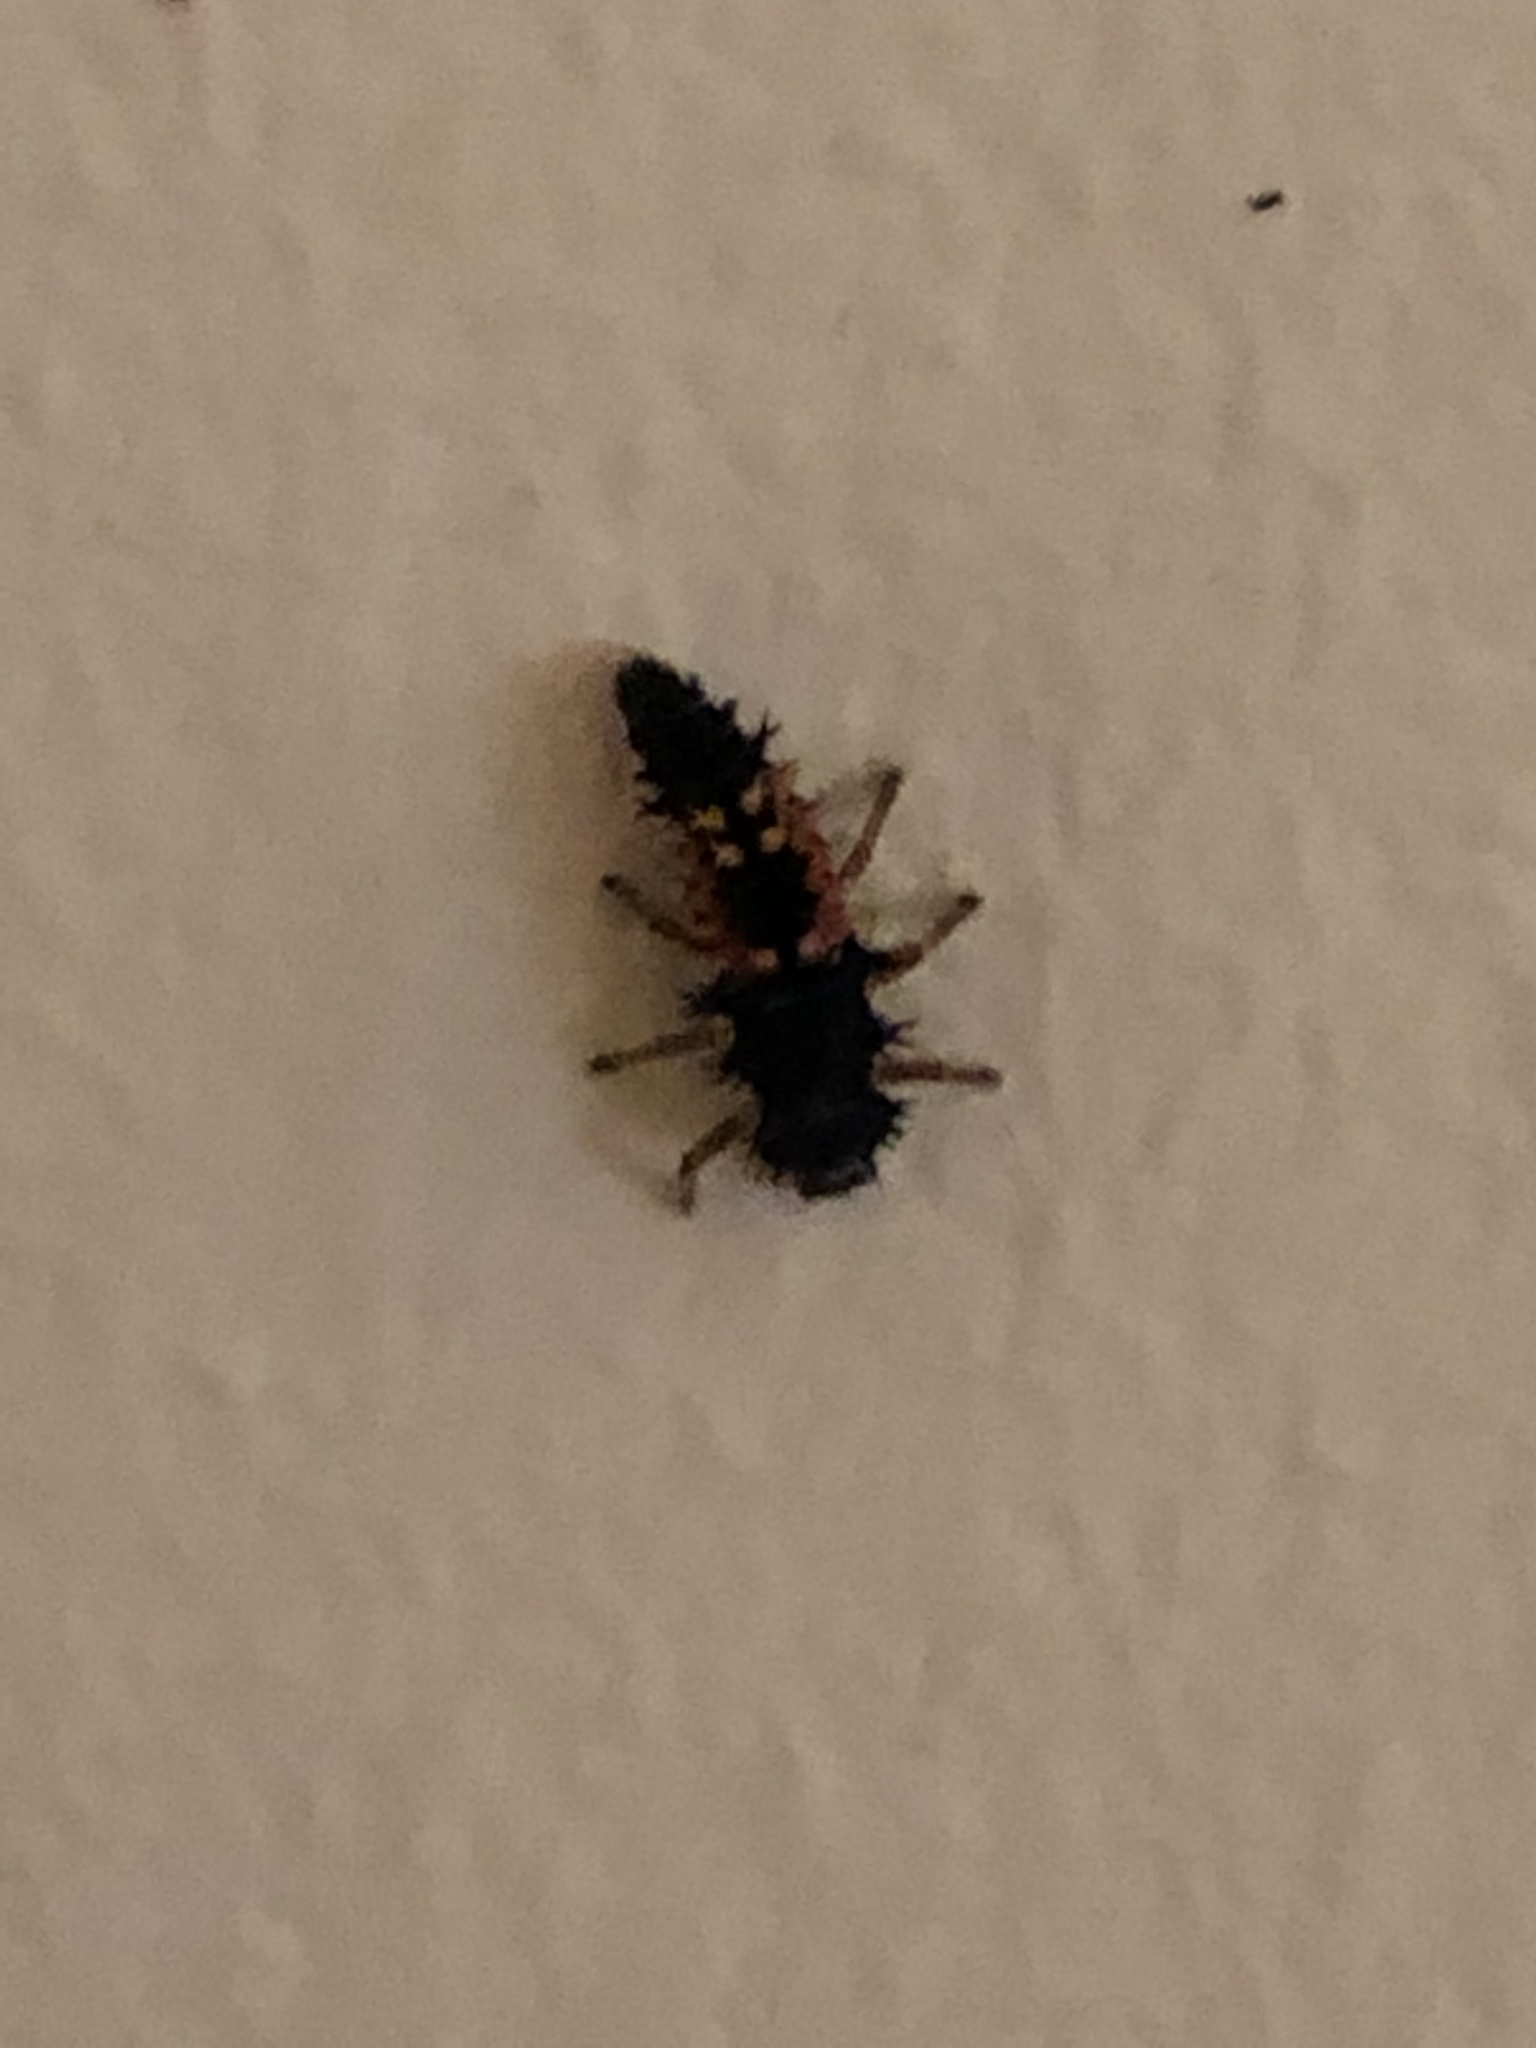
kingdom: Animalia
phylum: Arthropoda
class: Insecta
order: Coleoptera
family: Coccinellidae
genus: Harmonia
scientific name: Harmonia axyridis
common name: Harlequin ladybird
